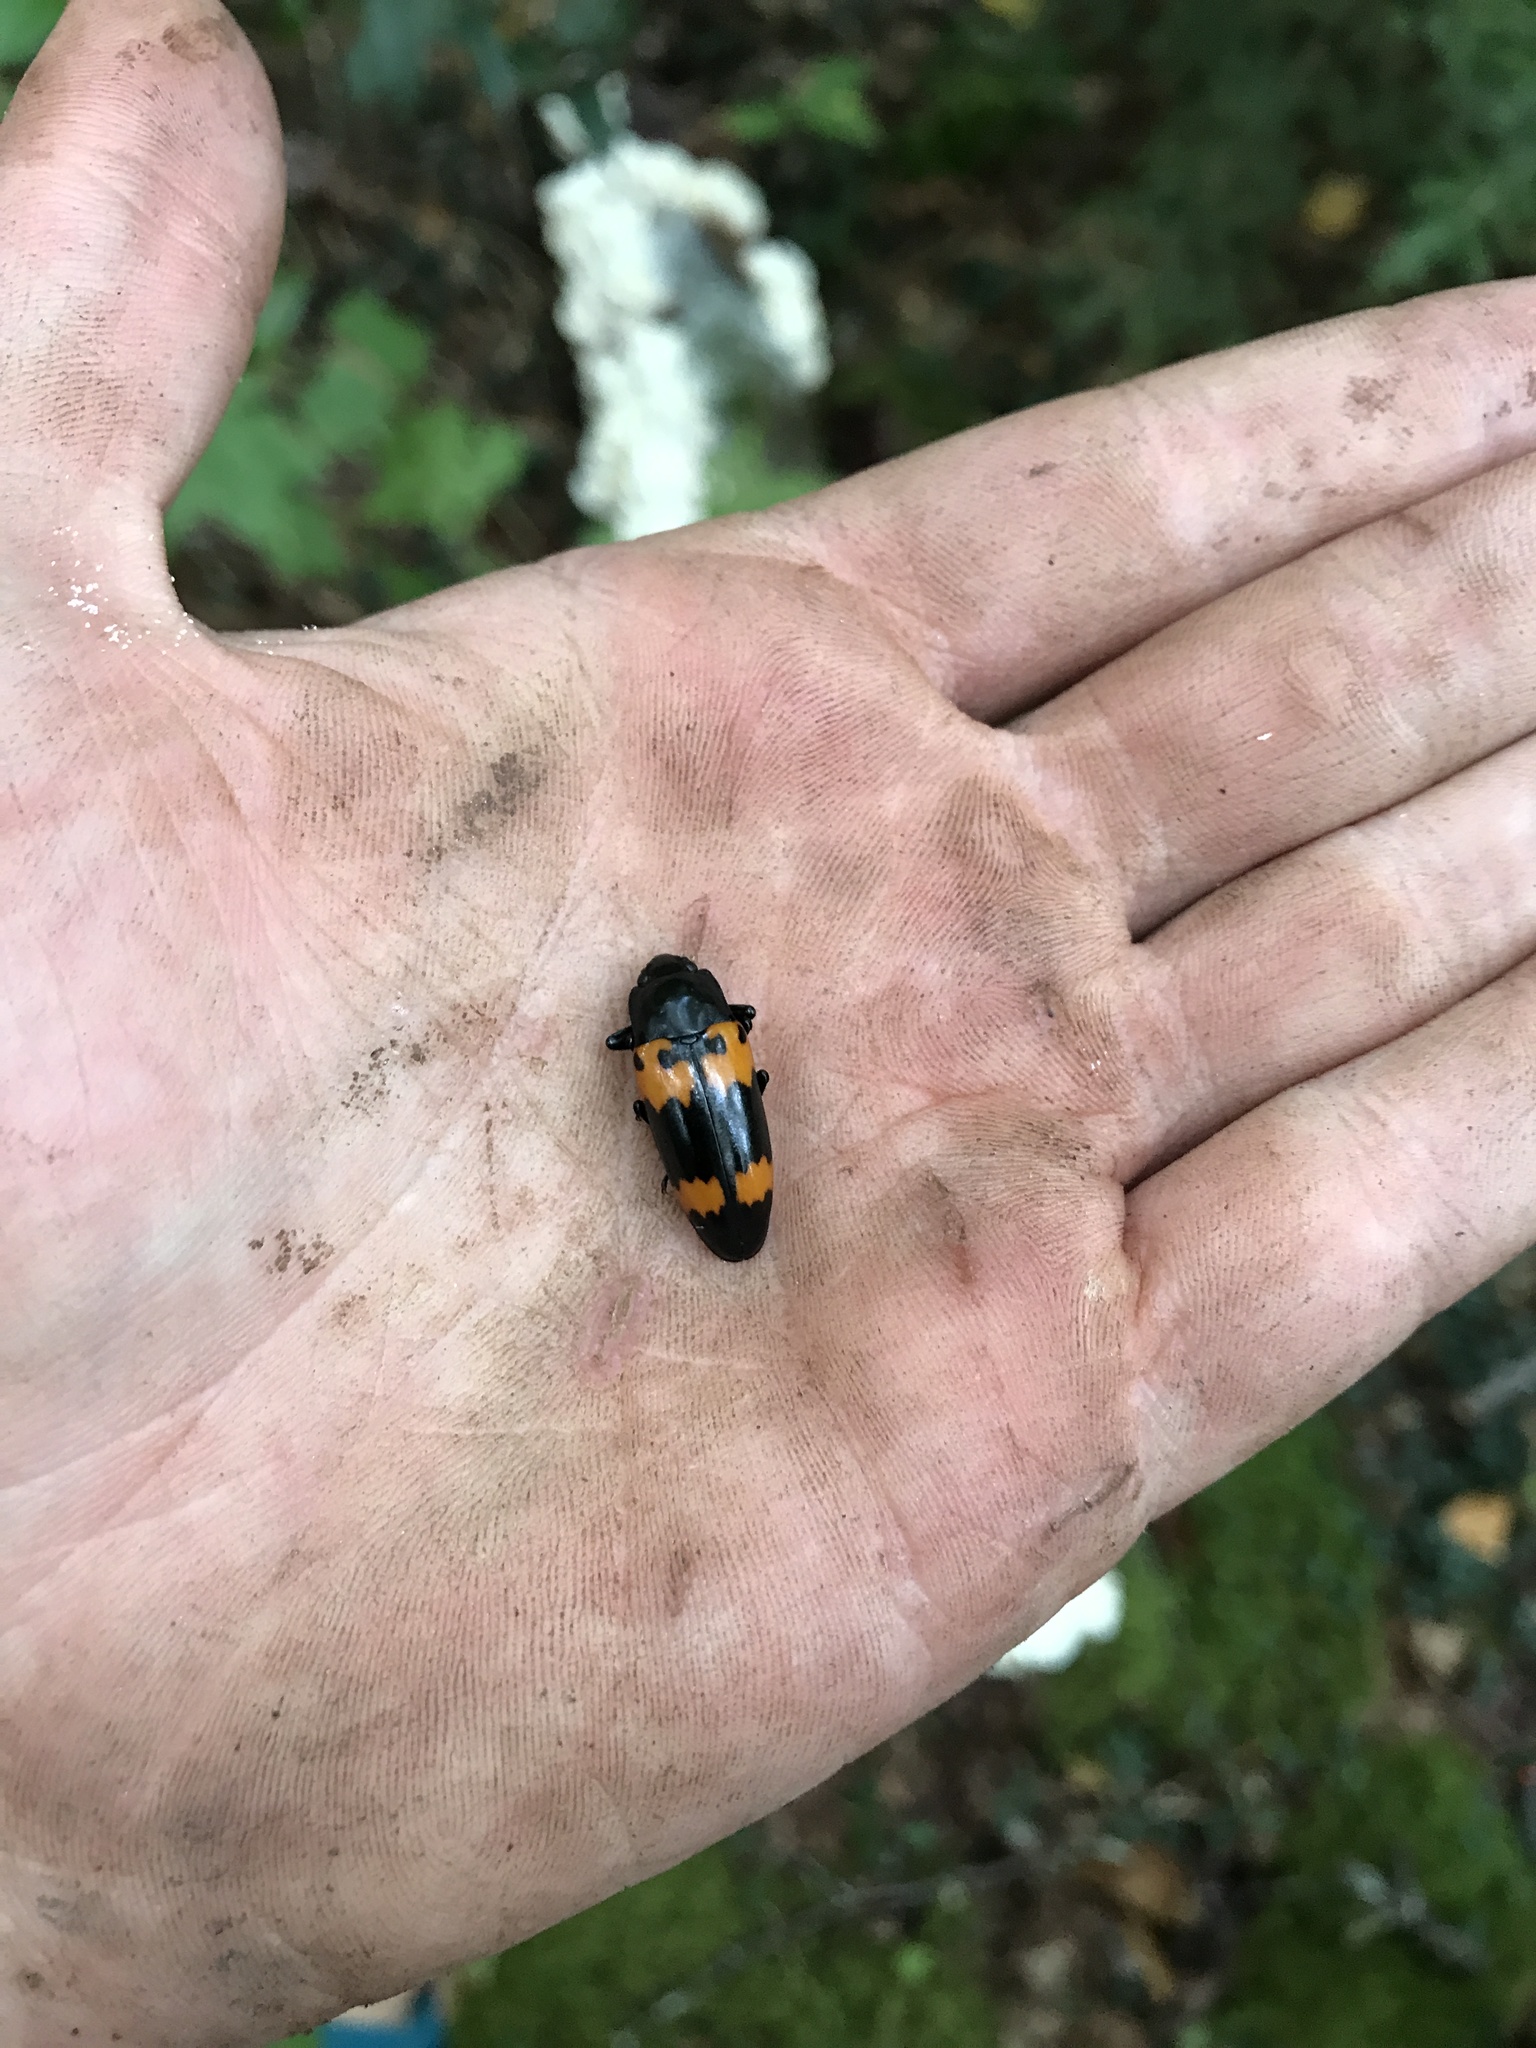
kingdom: Animalia
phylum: Arthropoda
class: Insecta
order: Coleoptera
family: Erotylidae
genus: Megalodacne
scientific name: Megalodacne heros
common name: Pleasing fungus beetle
